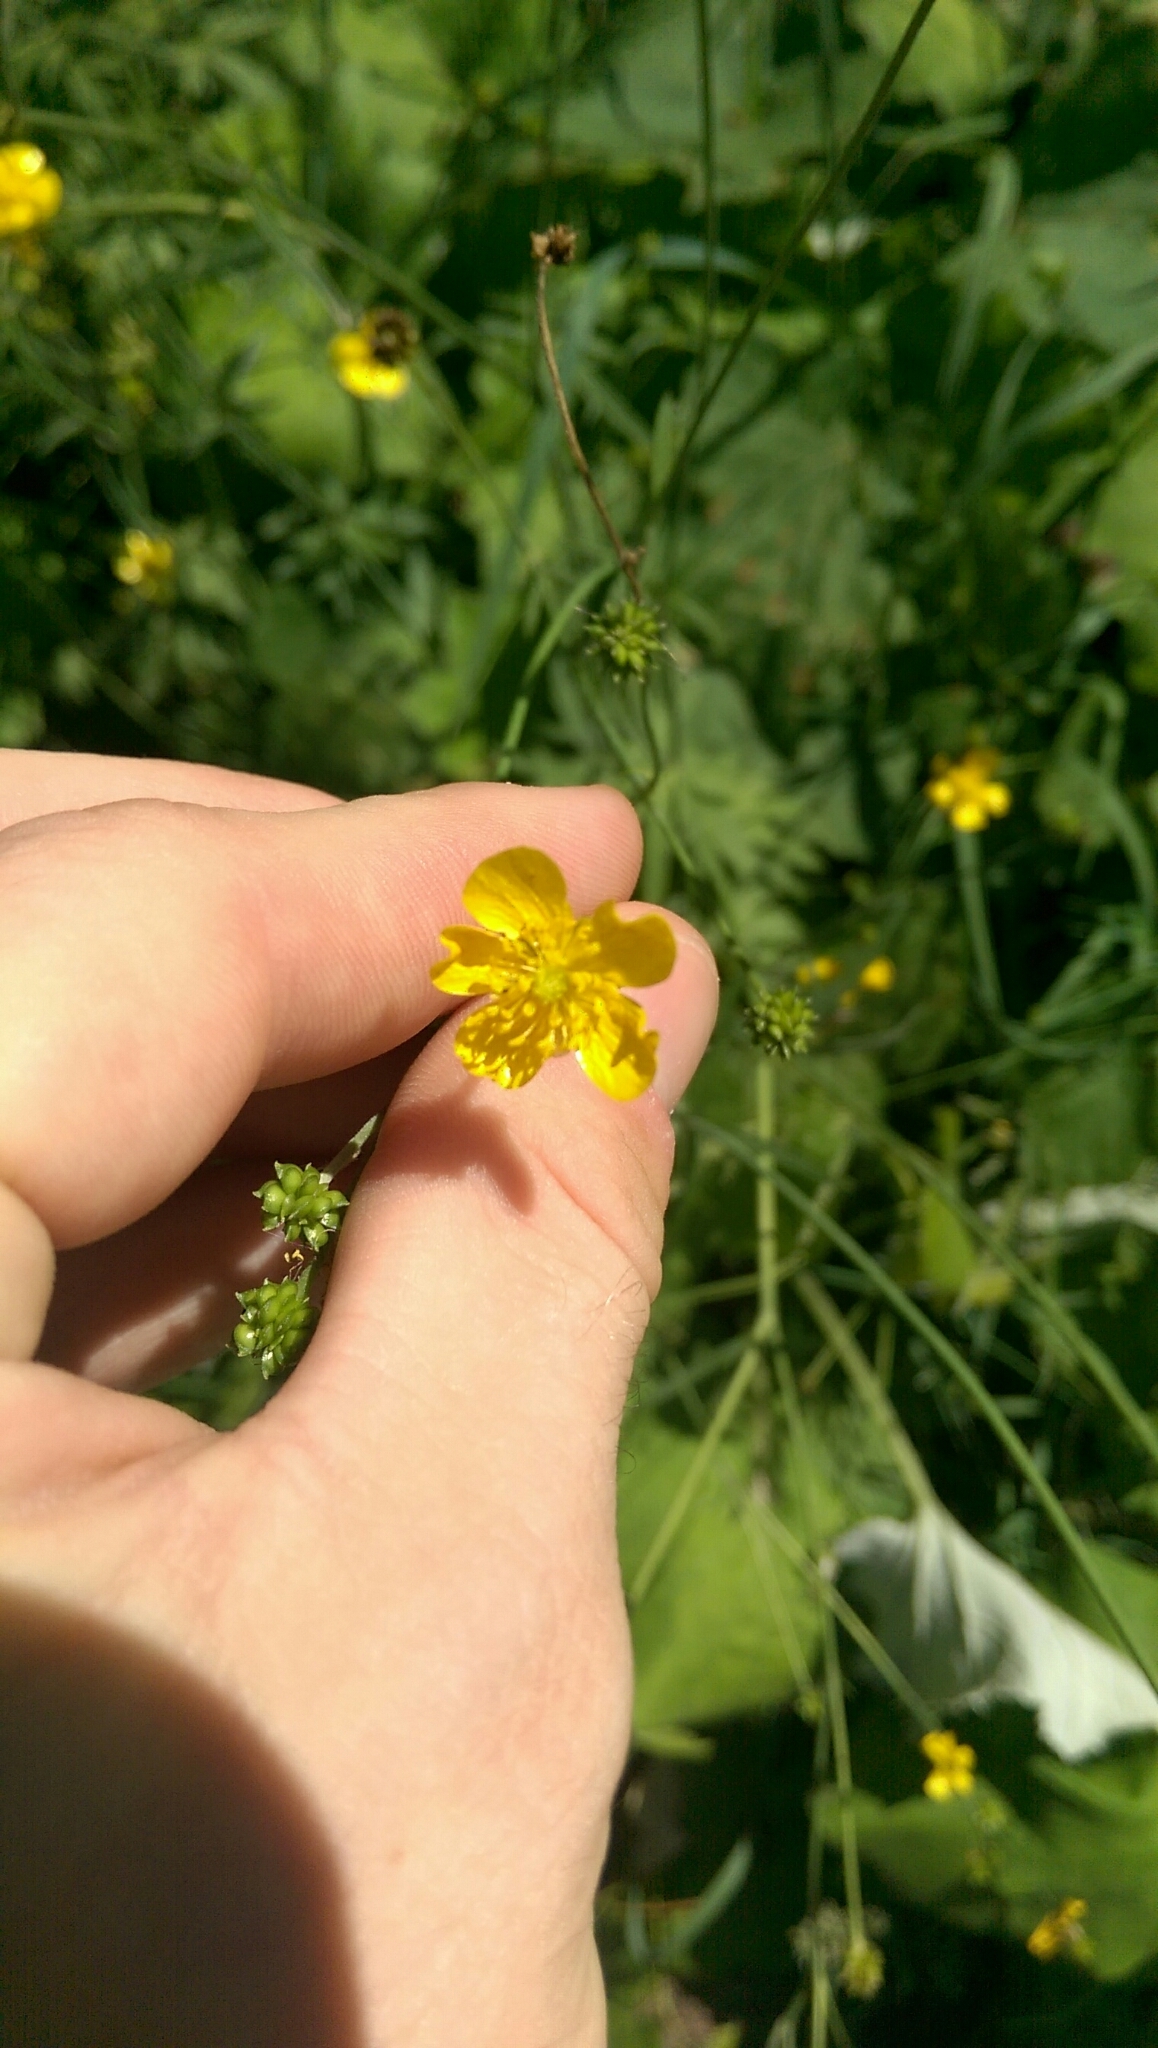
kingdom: Plantae
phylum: Tracheophyta
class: Magnoliopsida
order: Ranunculales
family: Ranunculaceae
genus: Ranunculus
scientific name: Ranunculus acris
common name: Meadow buttercup
